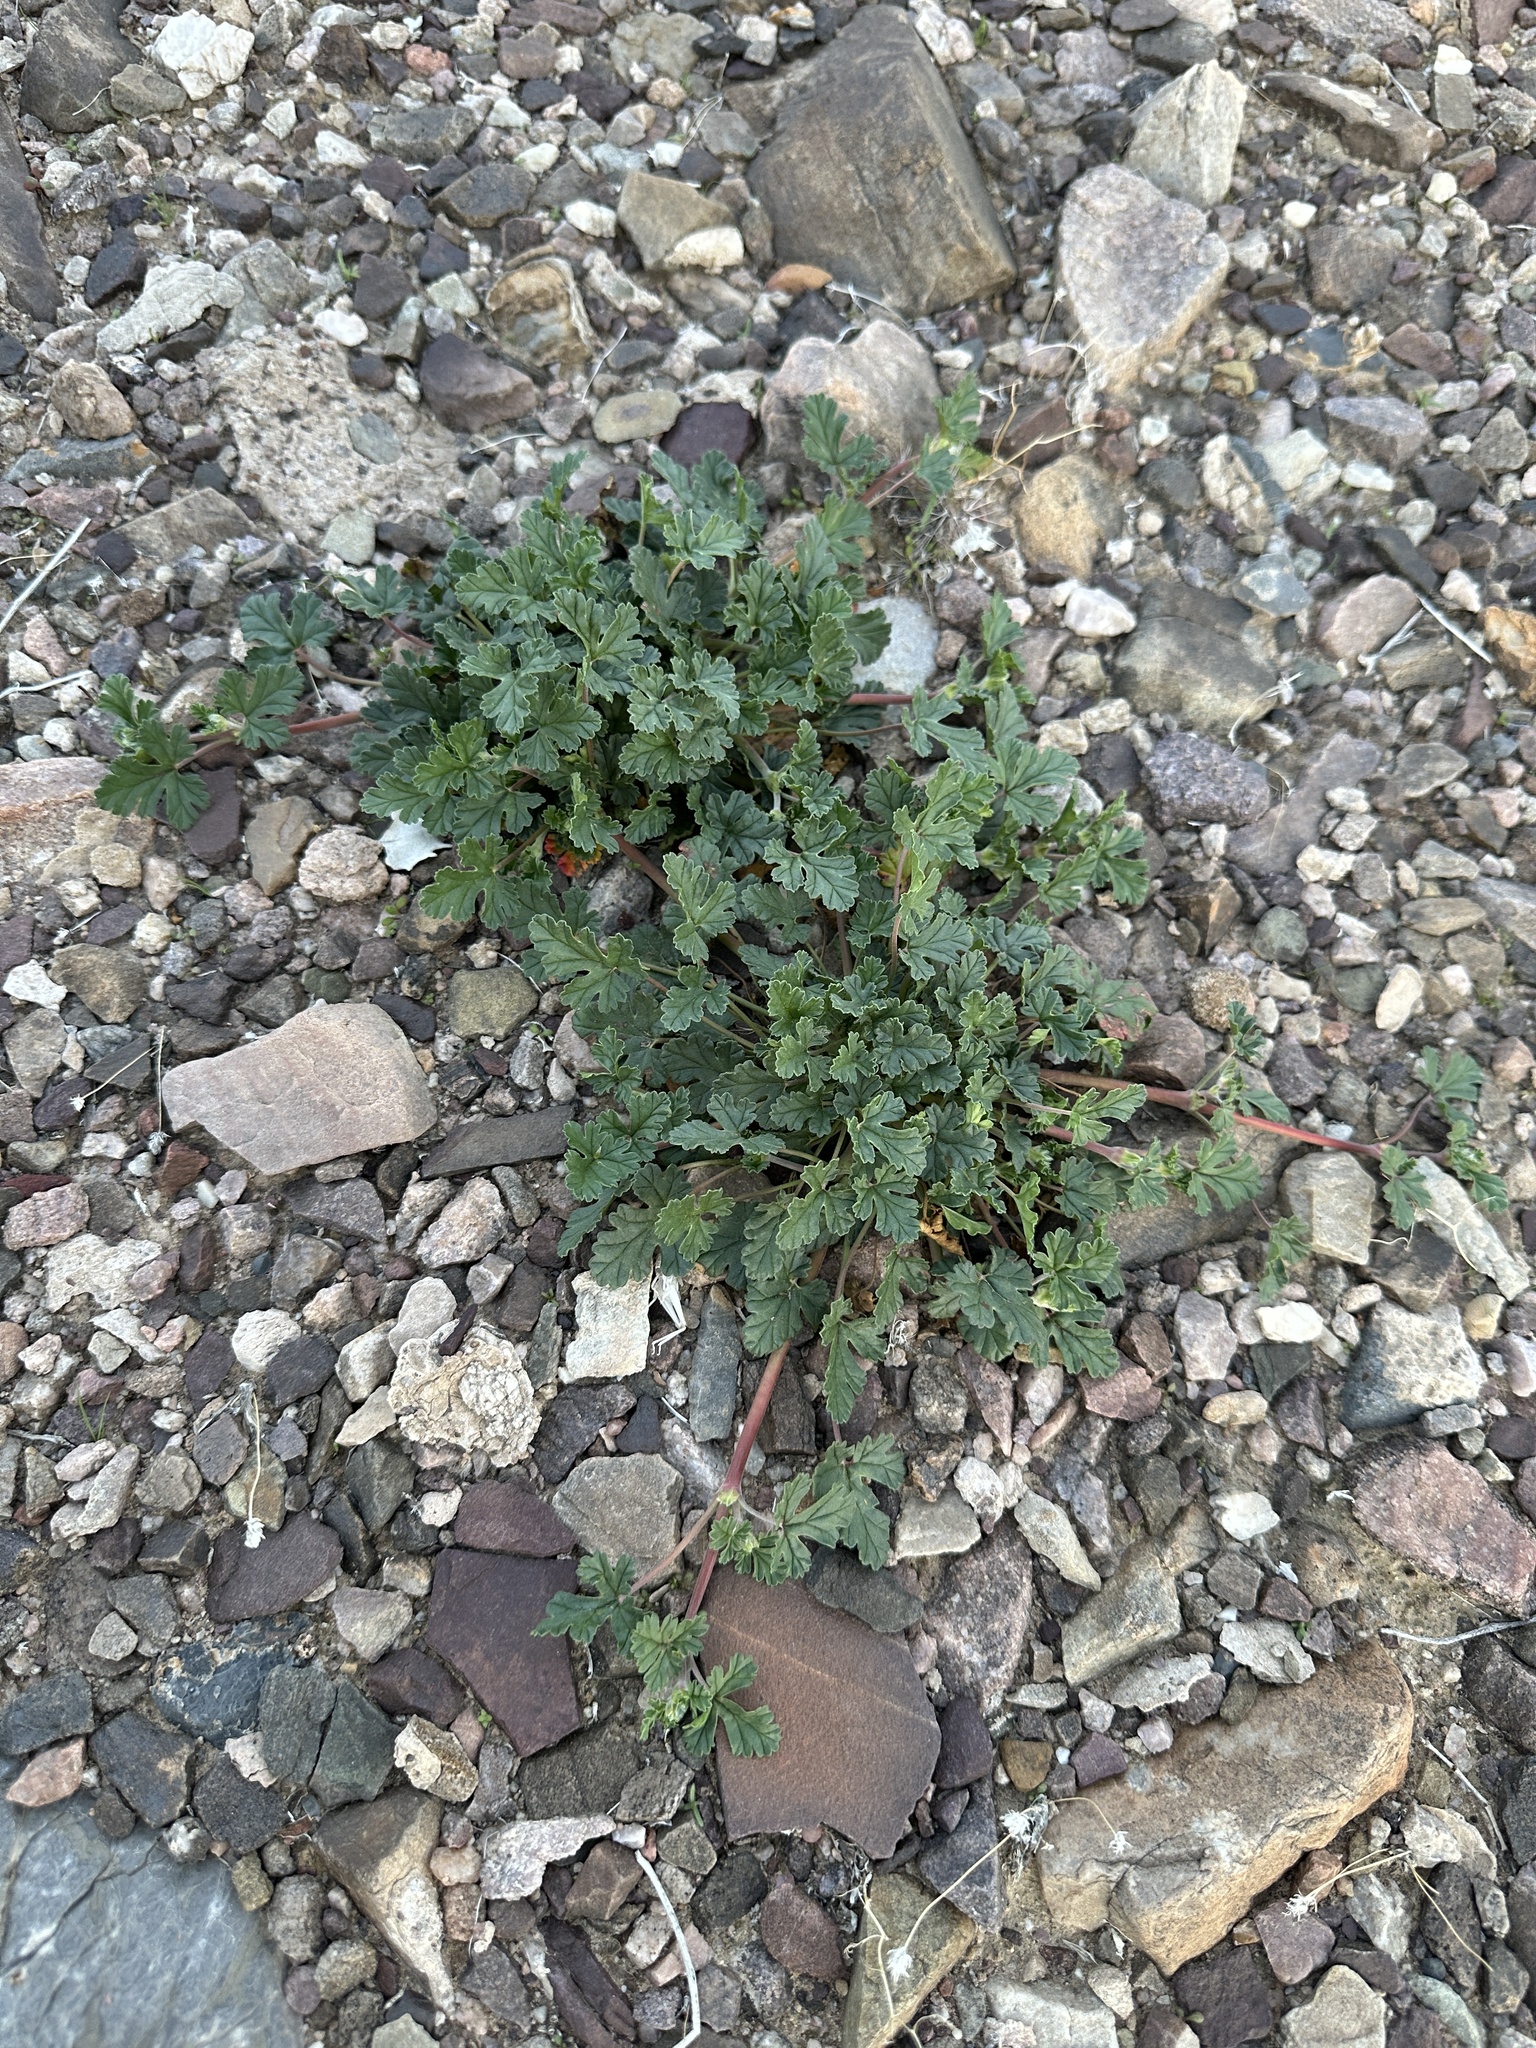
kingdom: Plantae
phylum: Tracheophyta
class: Magnoliopsida
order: Geraniales
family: Geraniaceae
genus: Erodium
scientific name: Erodium texanum
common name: Texas stork's-bill
